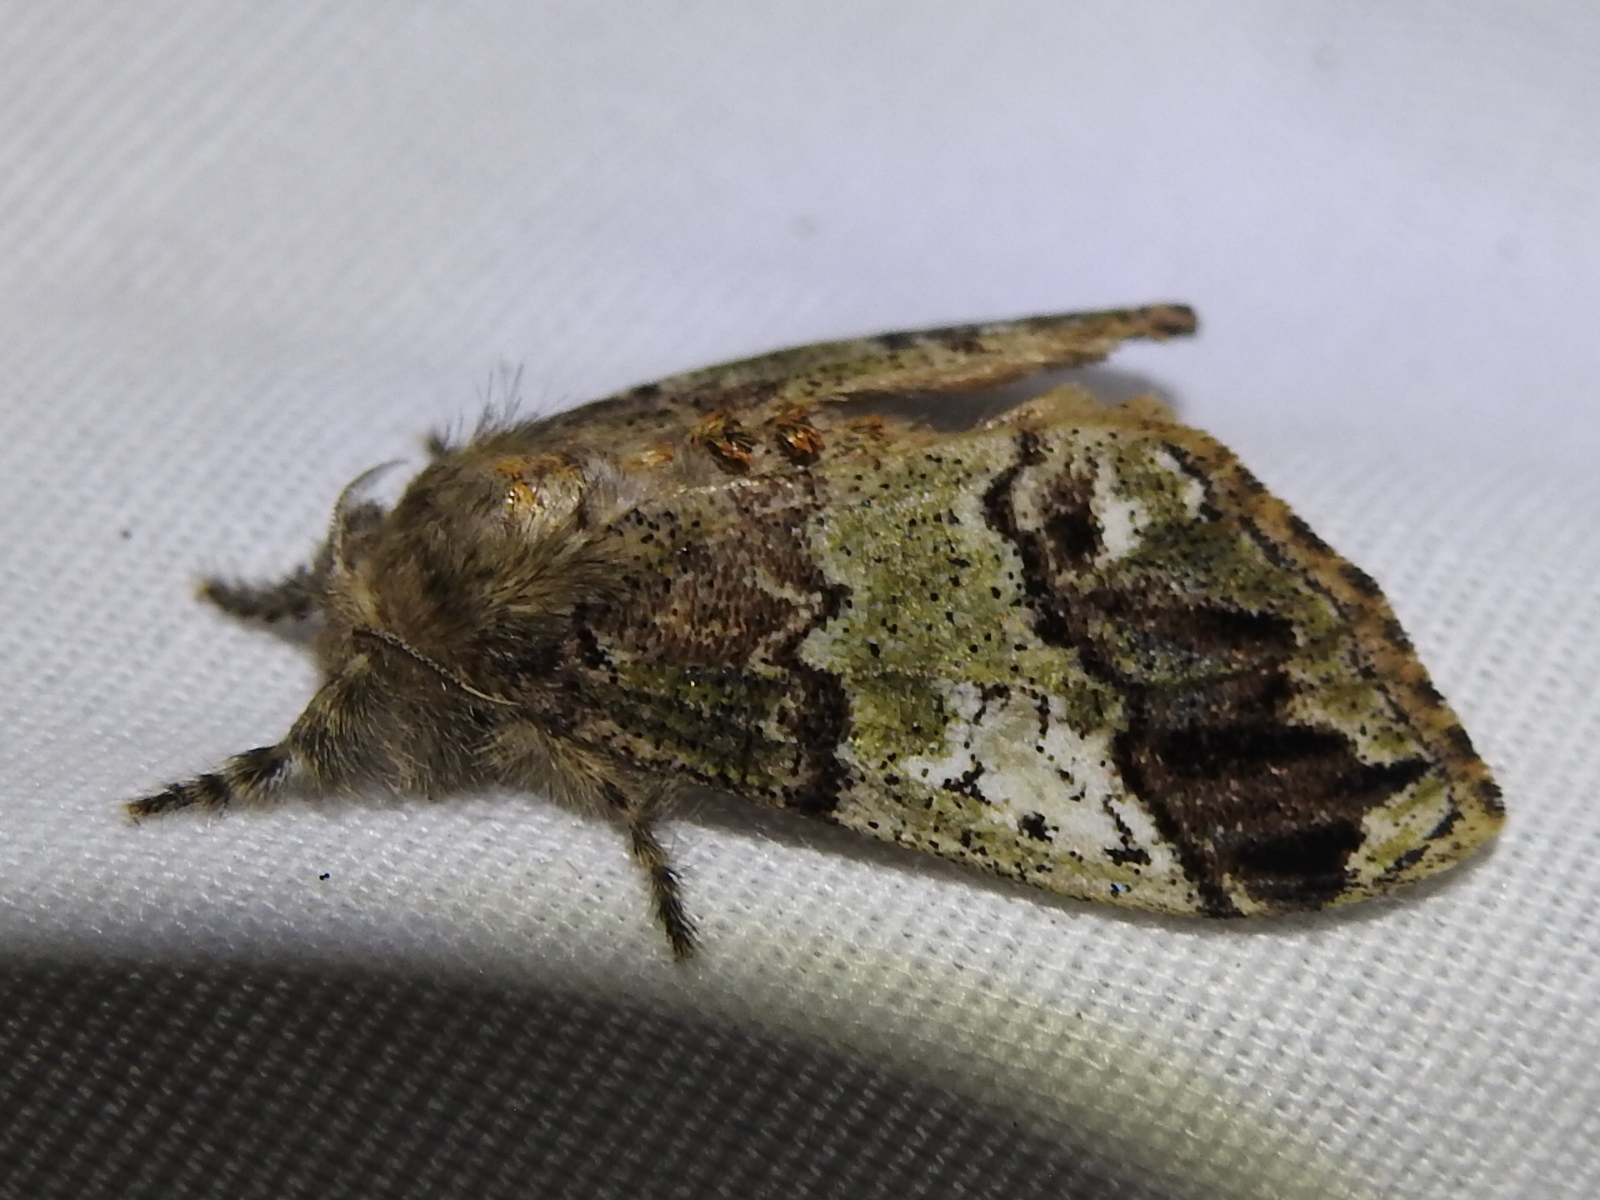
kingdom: Animalia
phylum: Arthropoda
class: Insecta
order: Lepidoptera
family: Erebidae
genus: Dasychira
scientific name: Dasychira manto
